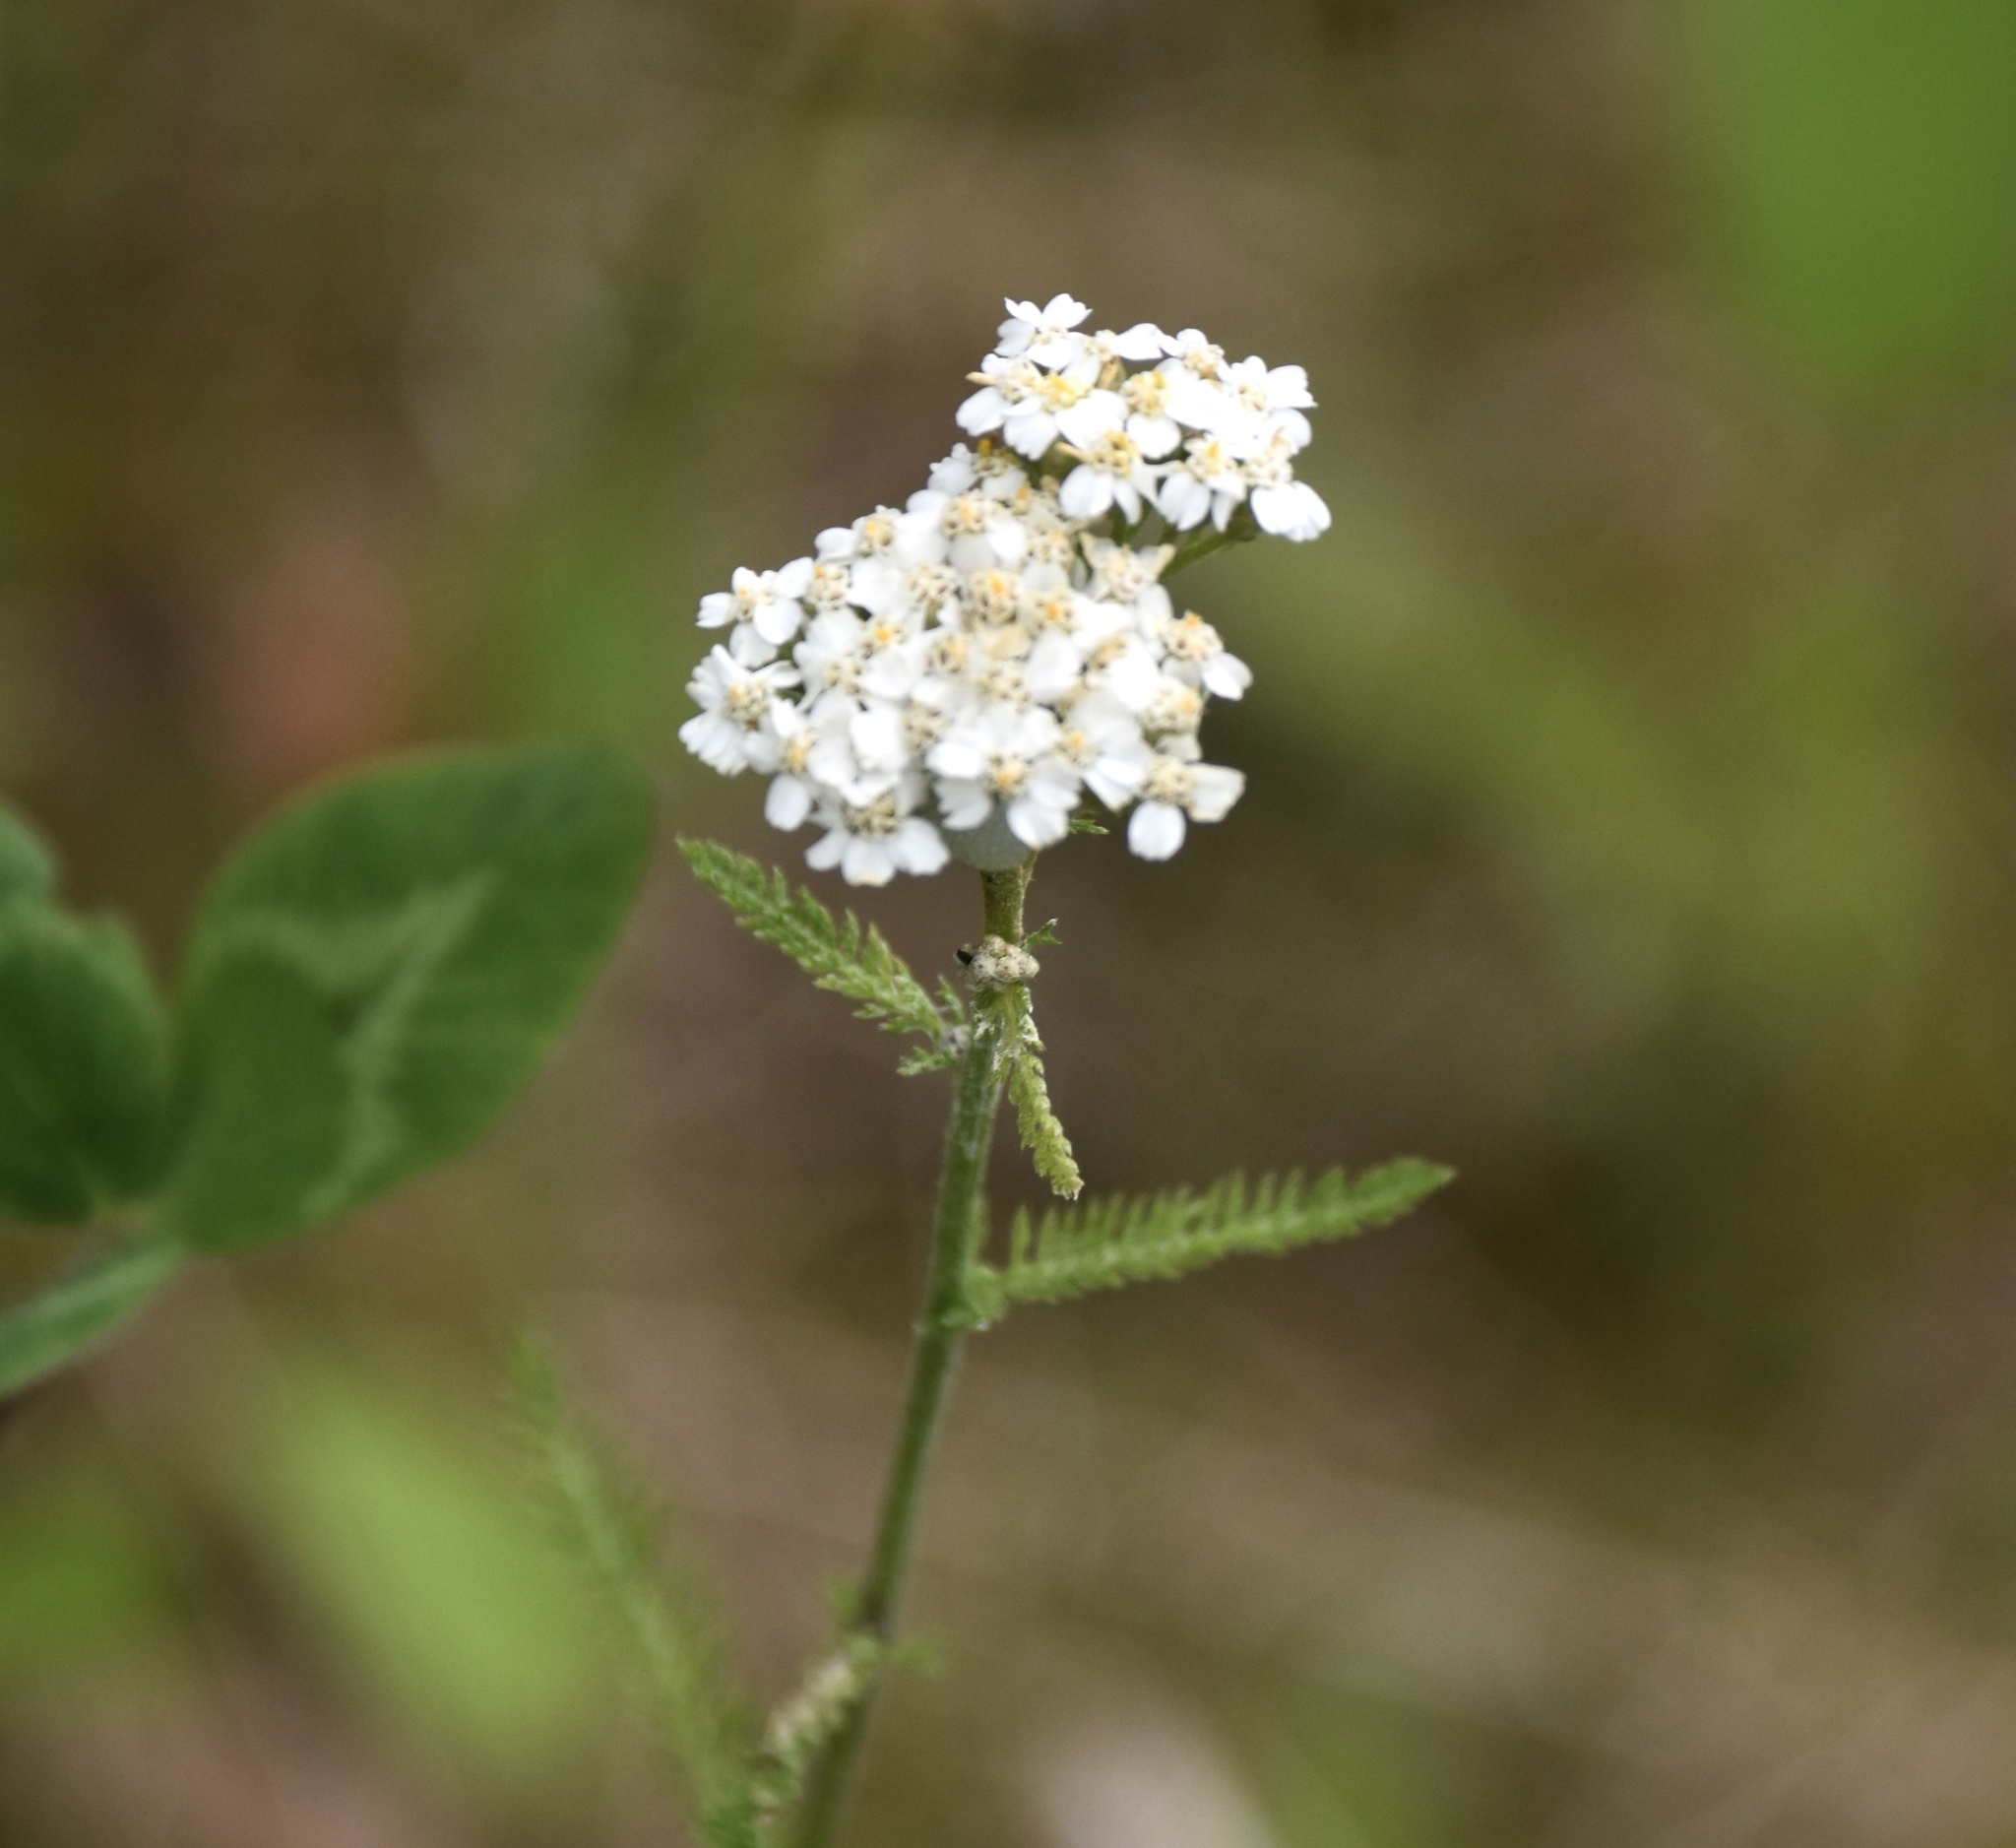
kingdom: Plantae
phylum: Tracheophyta
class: Magnoliopsida
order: Asterales
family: Asteraceae
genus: Achillea
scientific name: Achillea millefolium
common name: Yarrow
